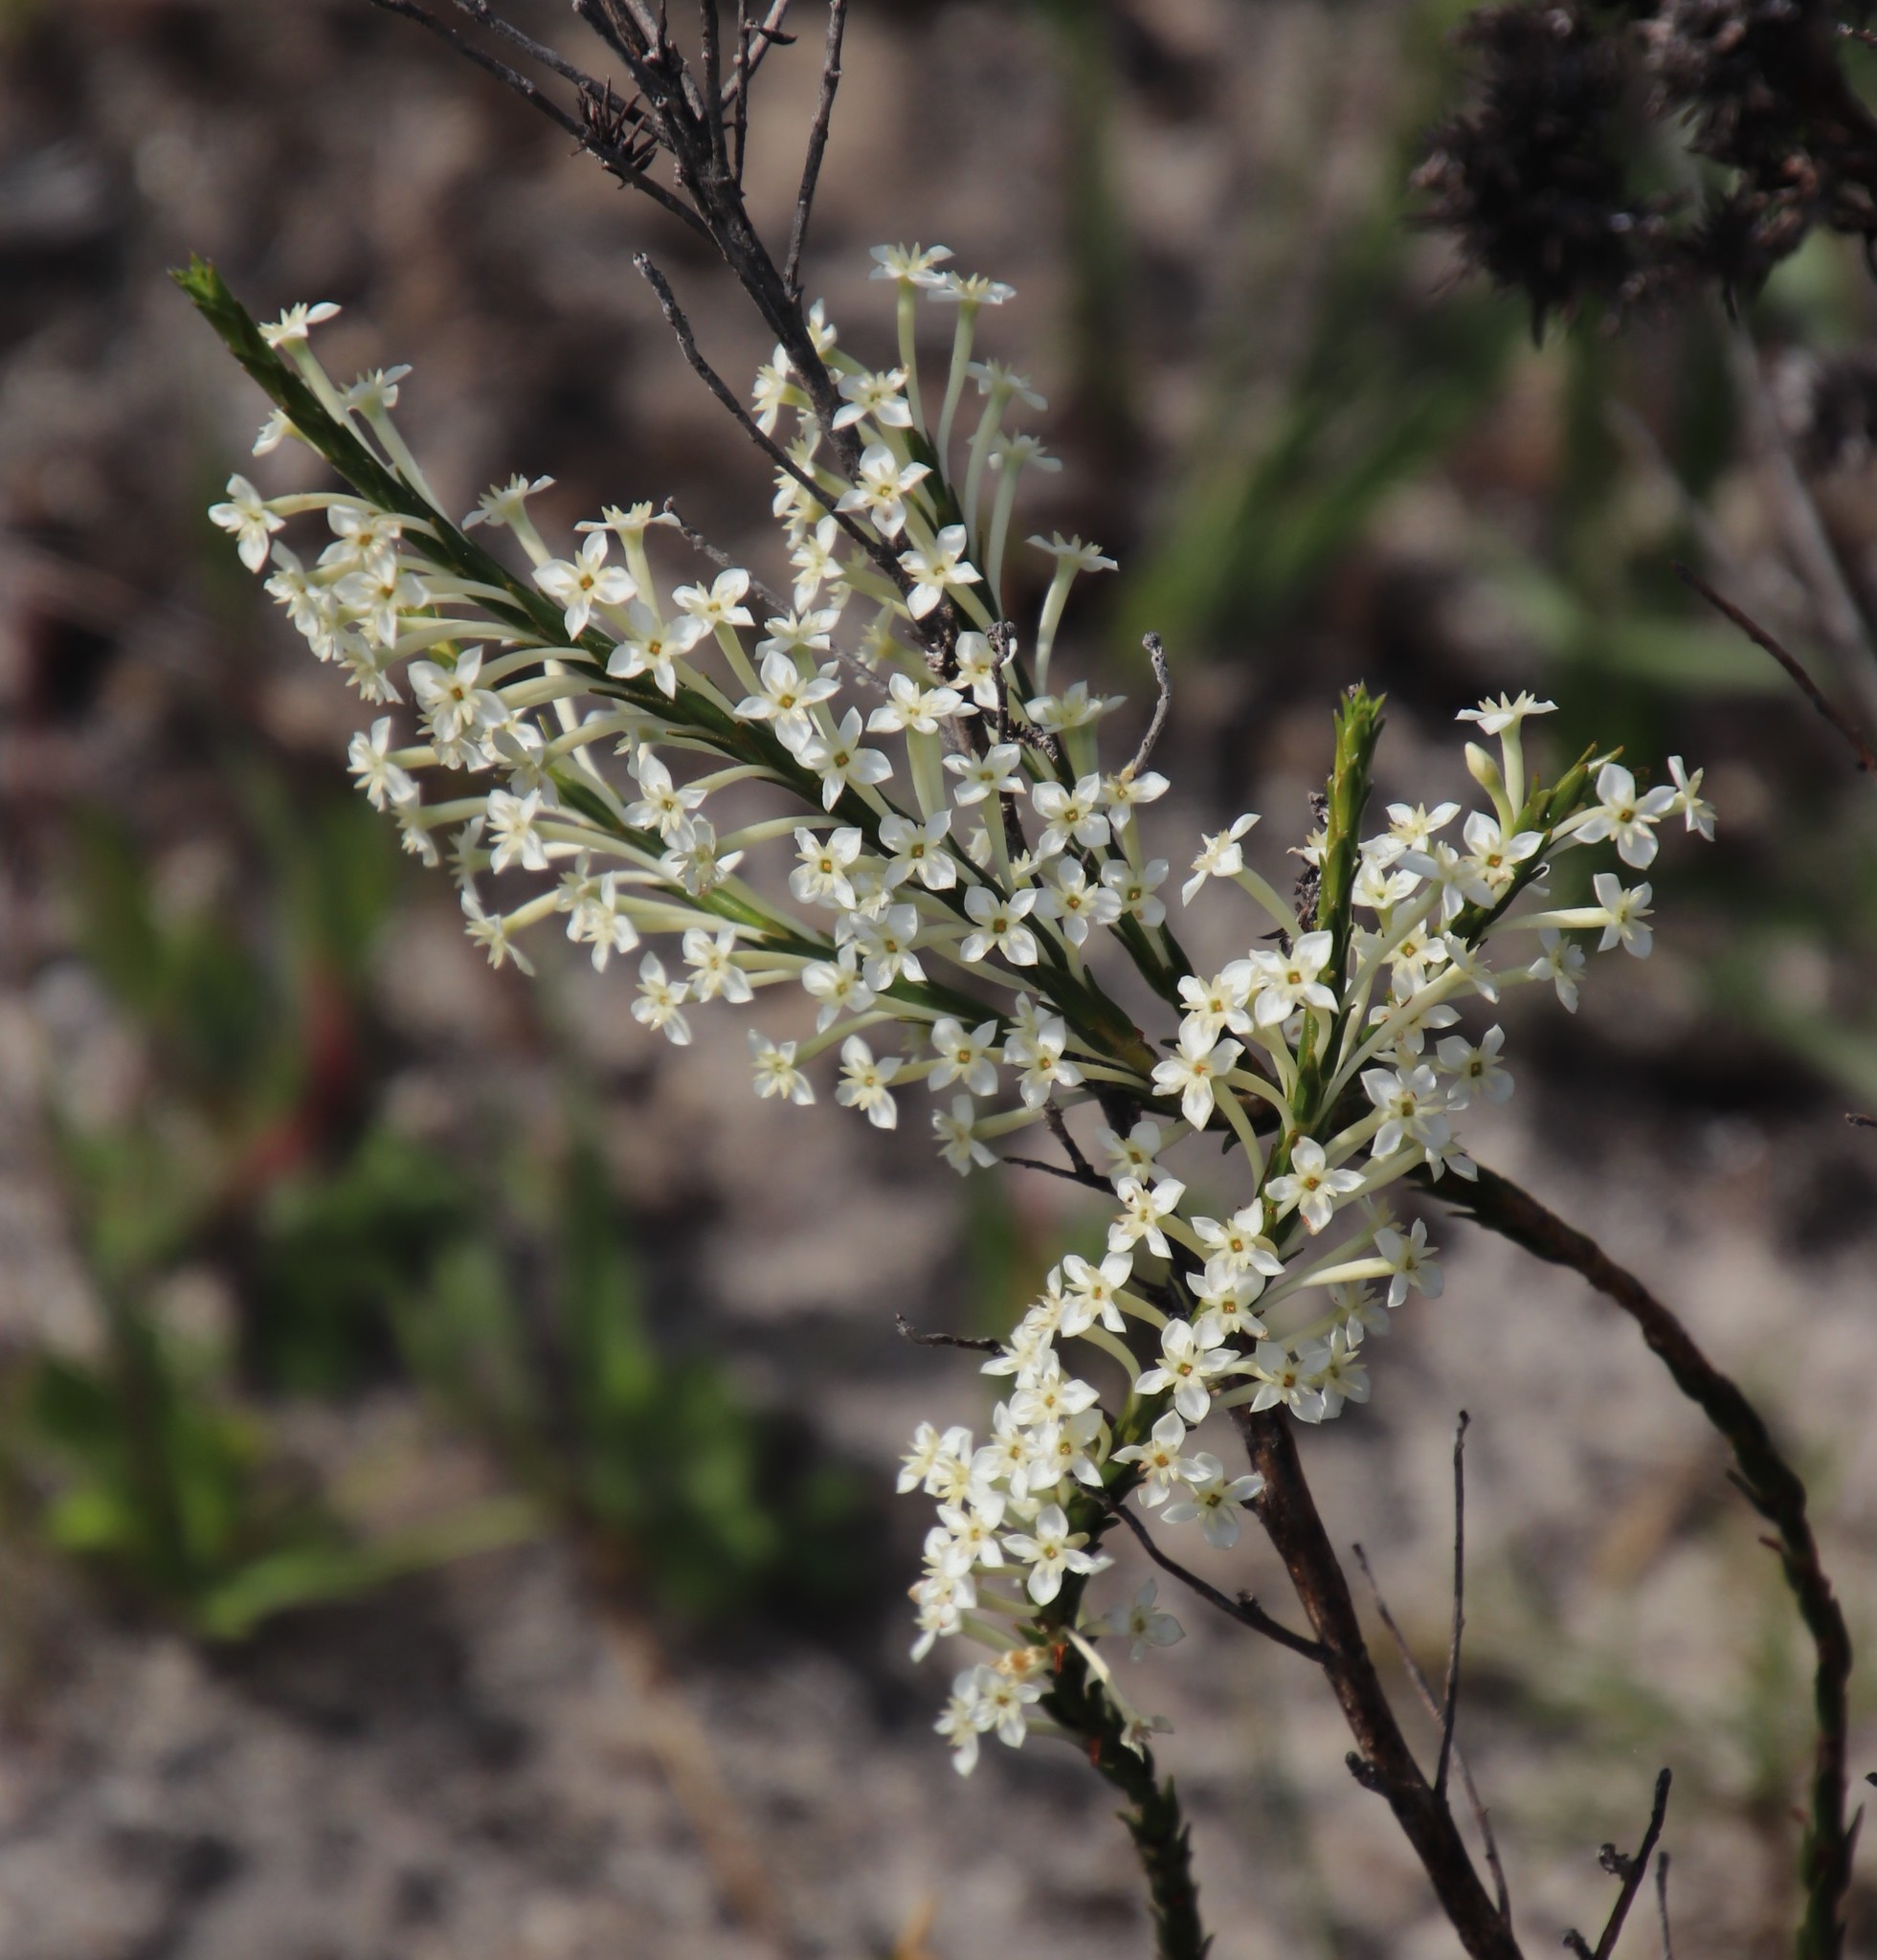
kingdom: Plantae
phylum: Tracheophyta
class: Magnoliopsida
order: Malvales
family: Thymelaeaceae
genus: Struthiola
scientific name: Struthiola myrsinites
